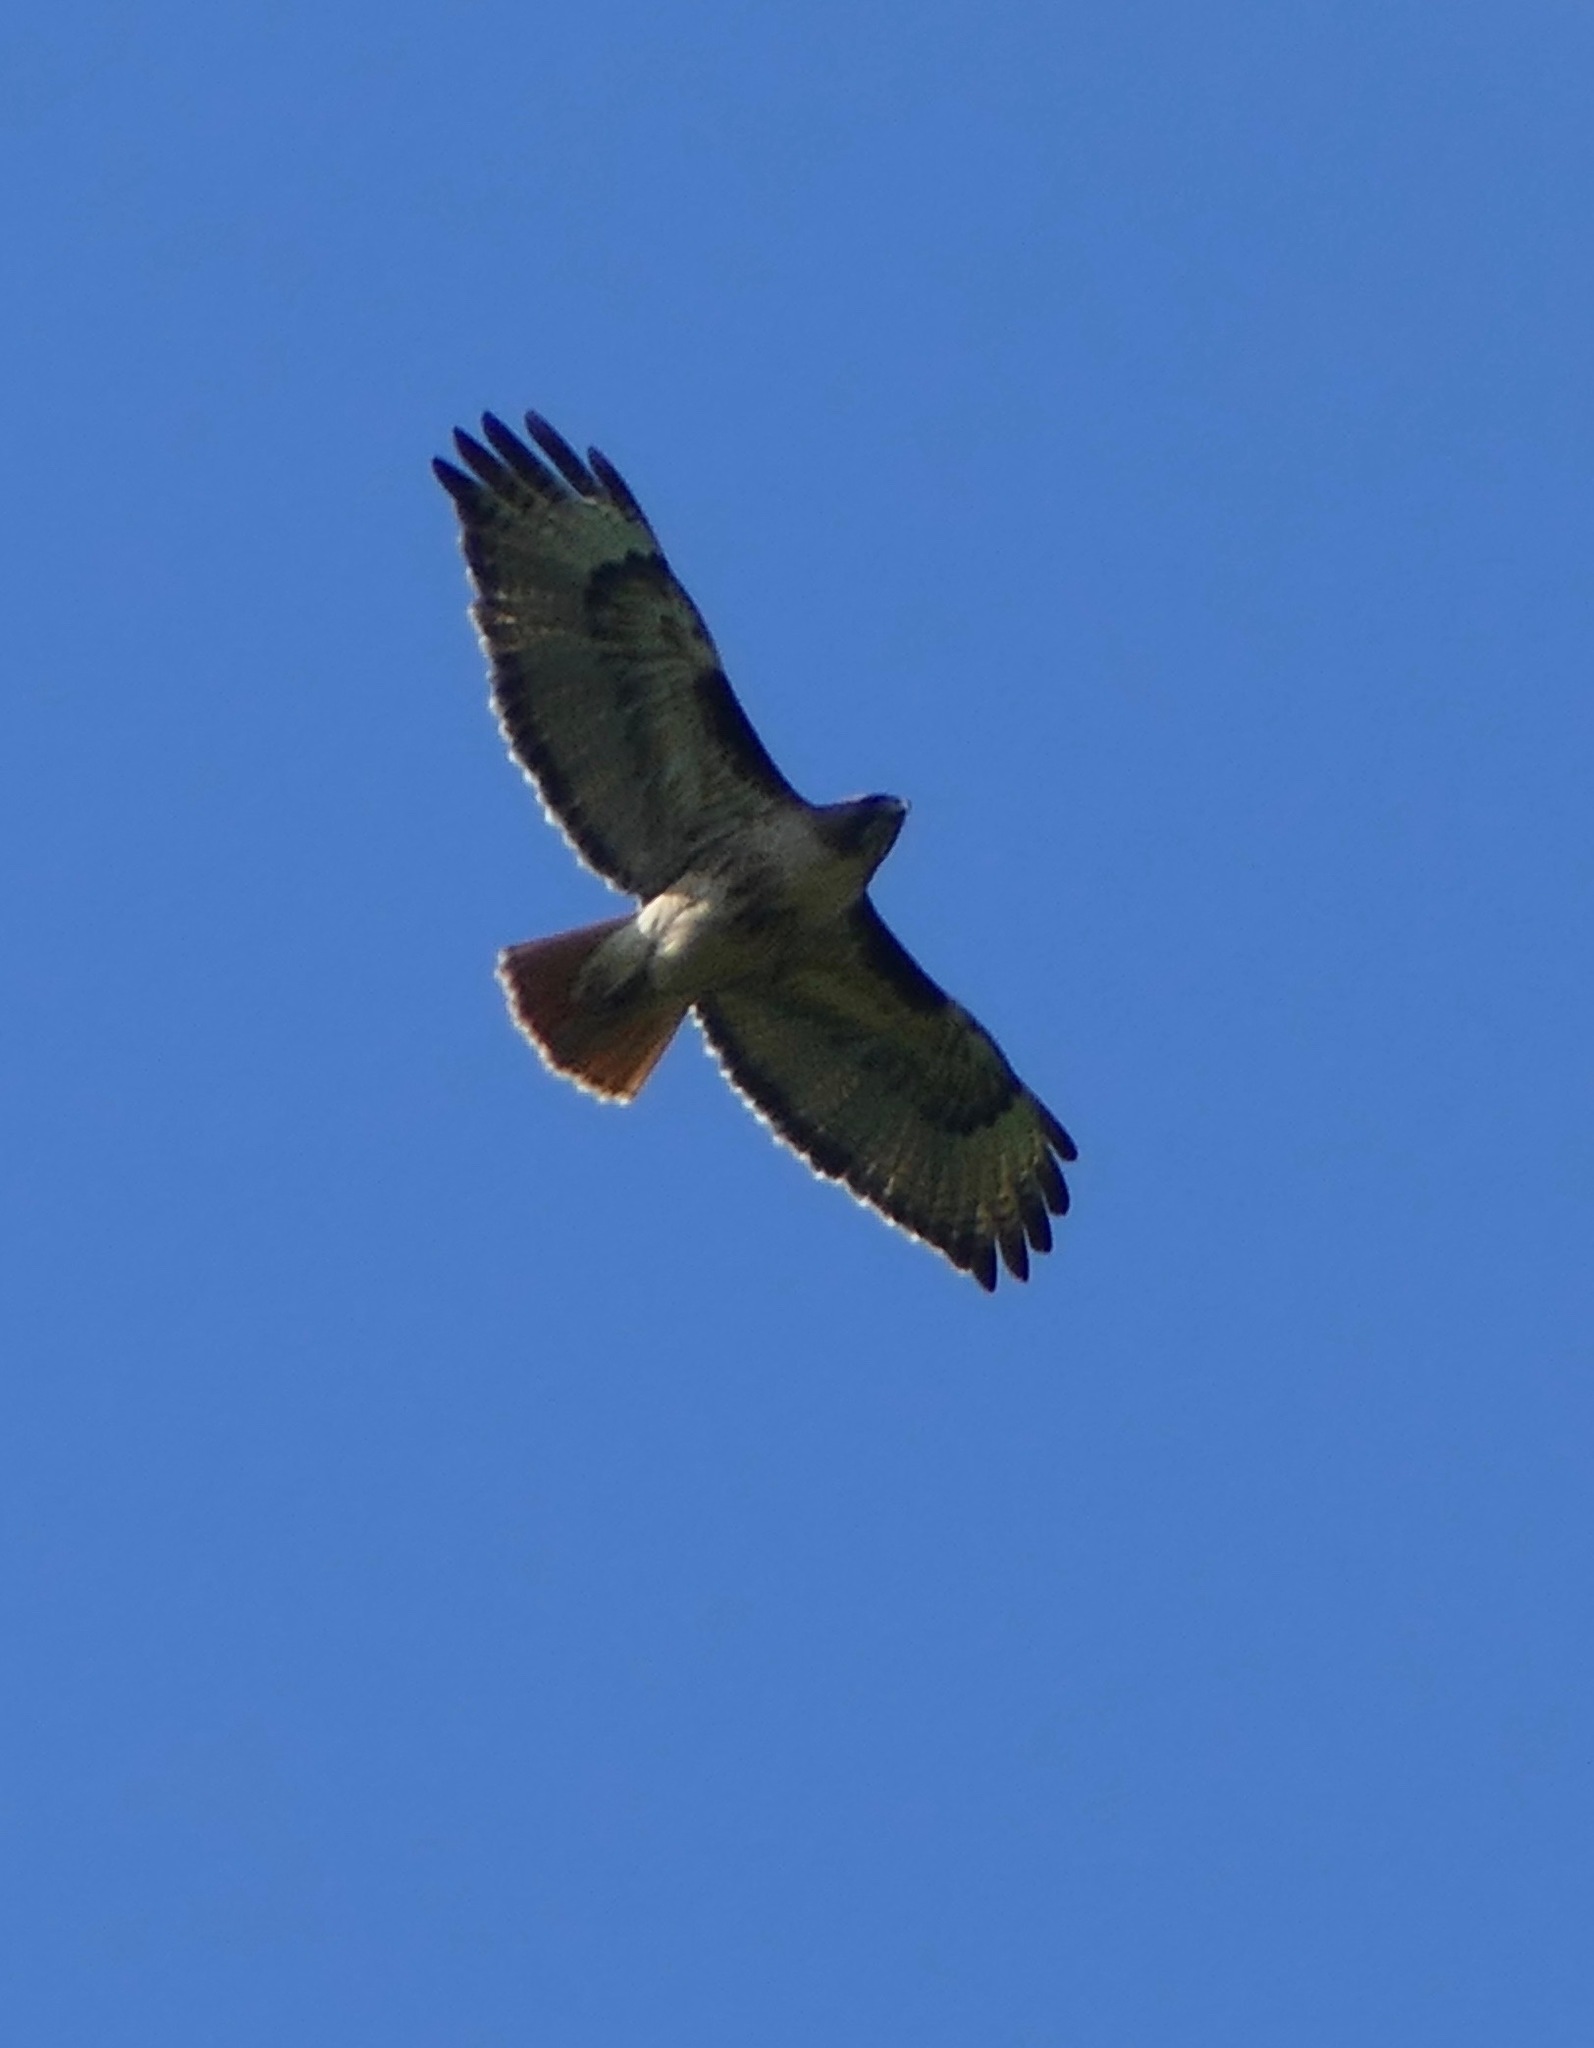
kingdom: Animalia
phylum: Chordata
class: Aves
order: Accipitriformes
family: Accipitridae
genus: Buteo
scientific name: Buteo jamaicensis
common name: Red-tailed hawk
